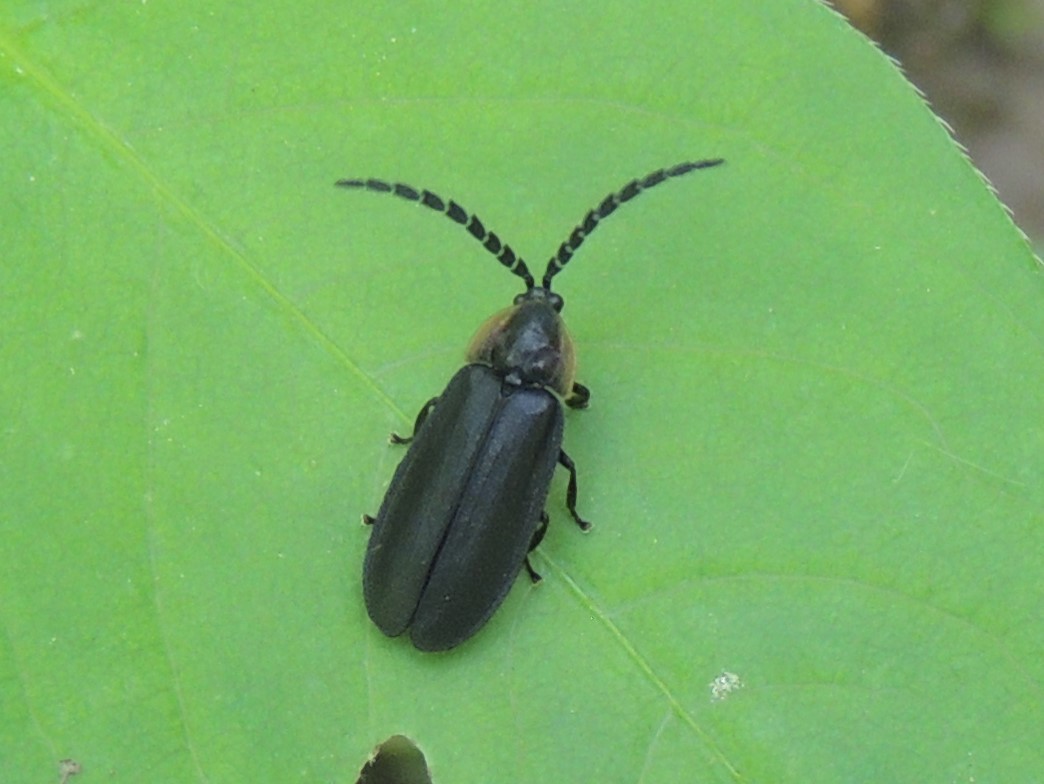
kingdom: Animalia
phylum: Arthropoda
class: Insecta
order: Coleoptera
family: Lampyridae
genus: Lucidota
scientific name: Lucidota atra
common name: Black firefly
